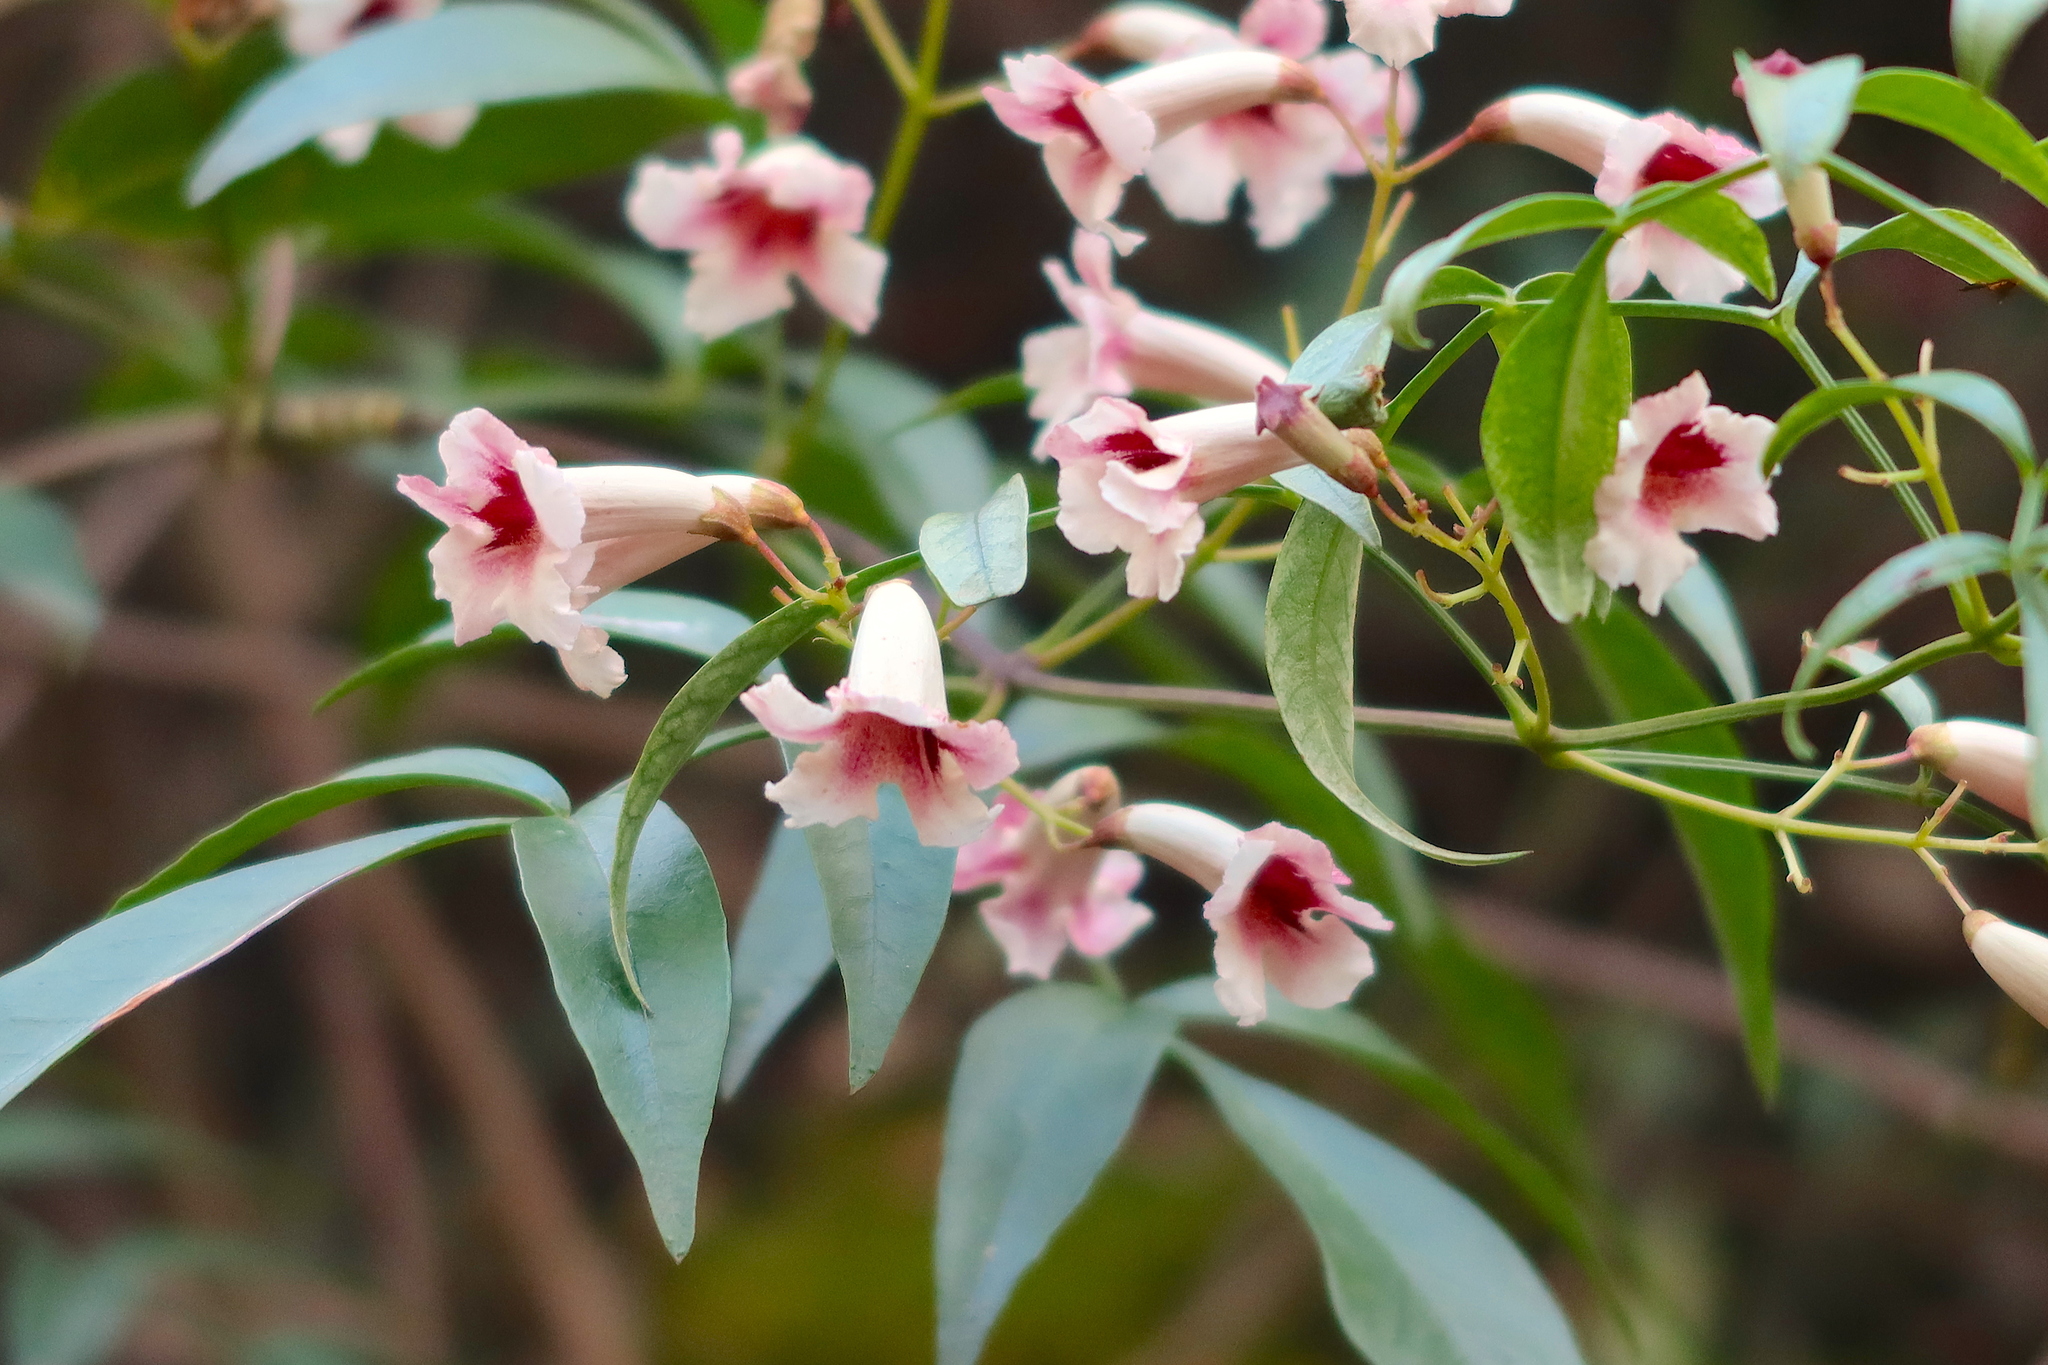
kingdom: Plantae
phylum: Tracheophyta
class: Magnoliopsida
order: Lamiales
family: Bignoniaceae
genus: Pandorea
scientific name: Pandorea pandorana
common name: Wonga-wonga-vine
